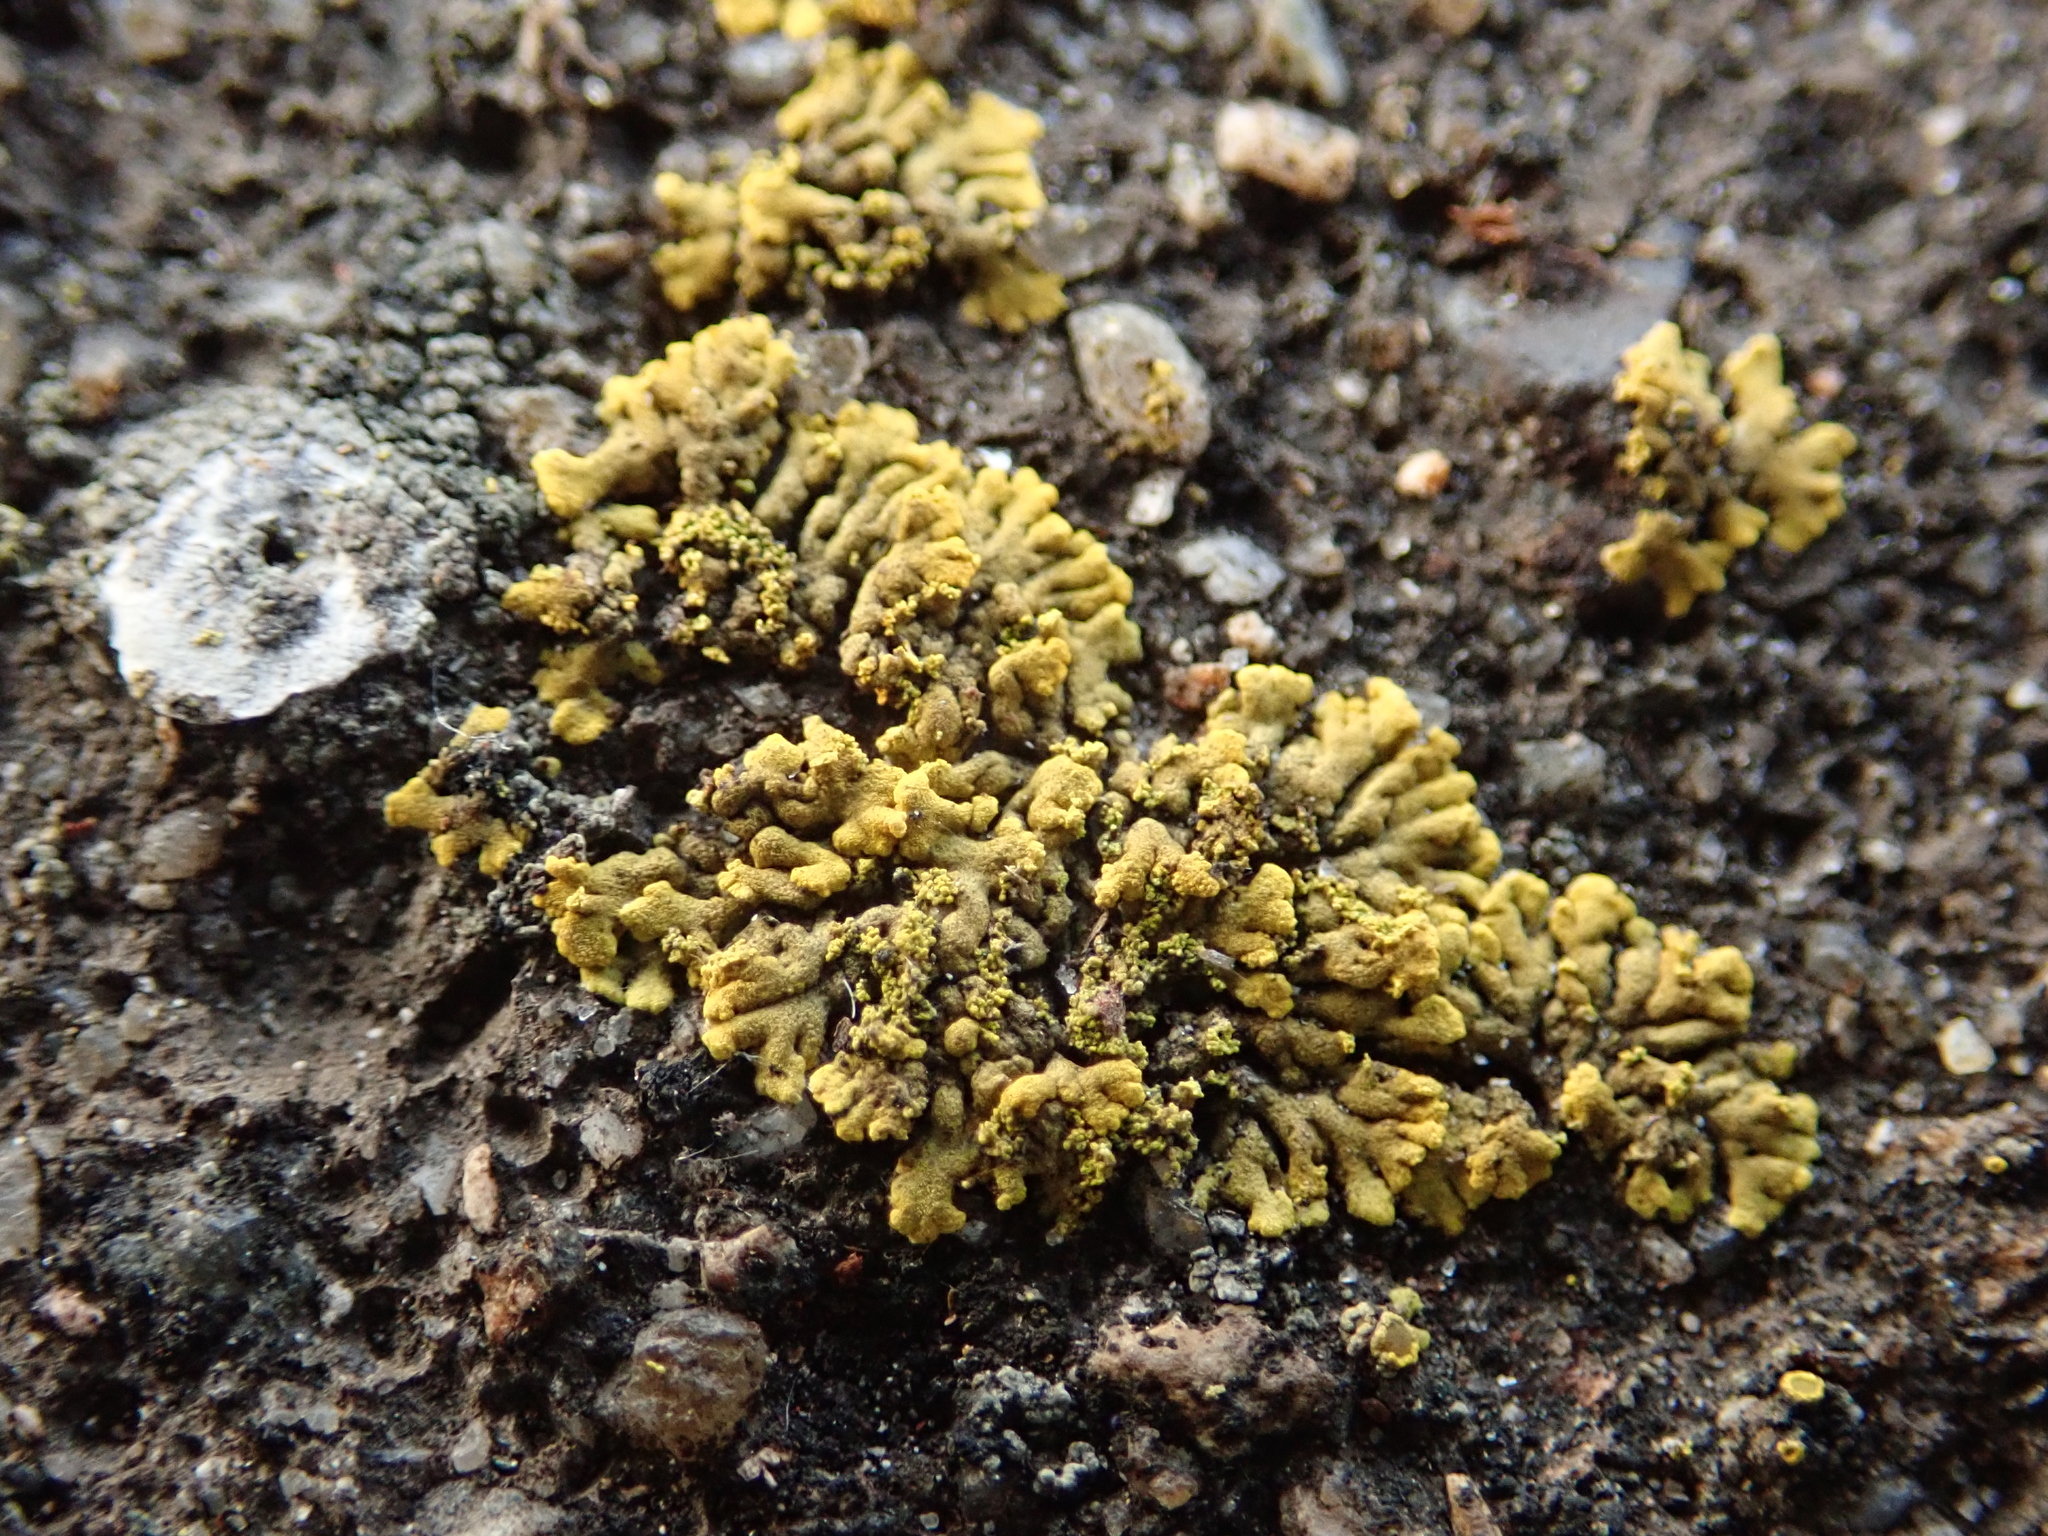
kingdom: Fungi
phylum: Ascomycota
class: Lecanoromycetes
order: Teloschistales
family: Teloschistaceae
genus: Calogaya
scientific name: Calogaya decipiens
